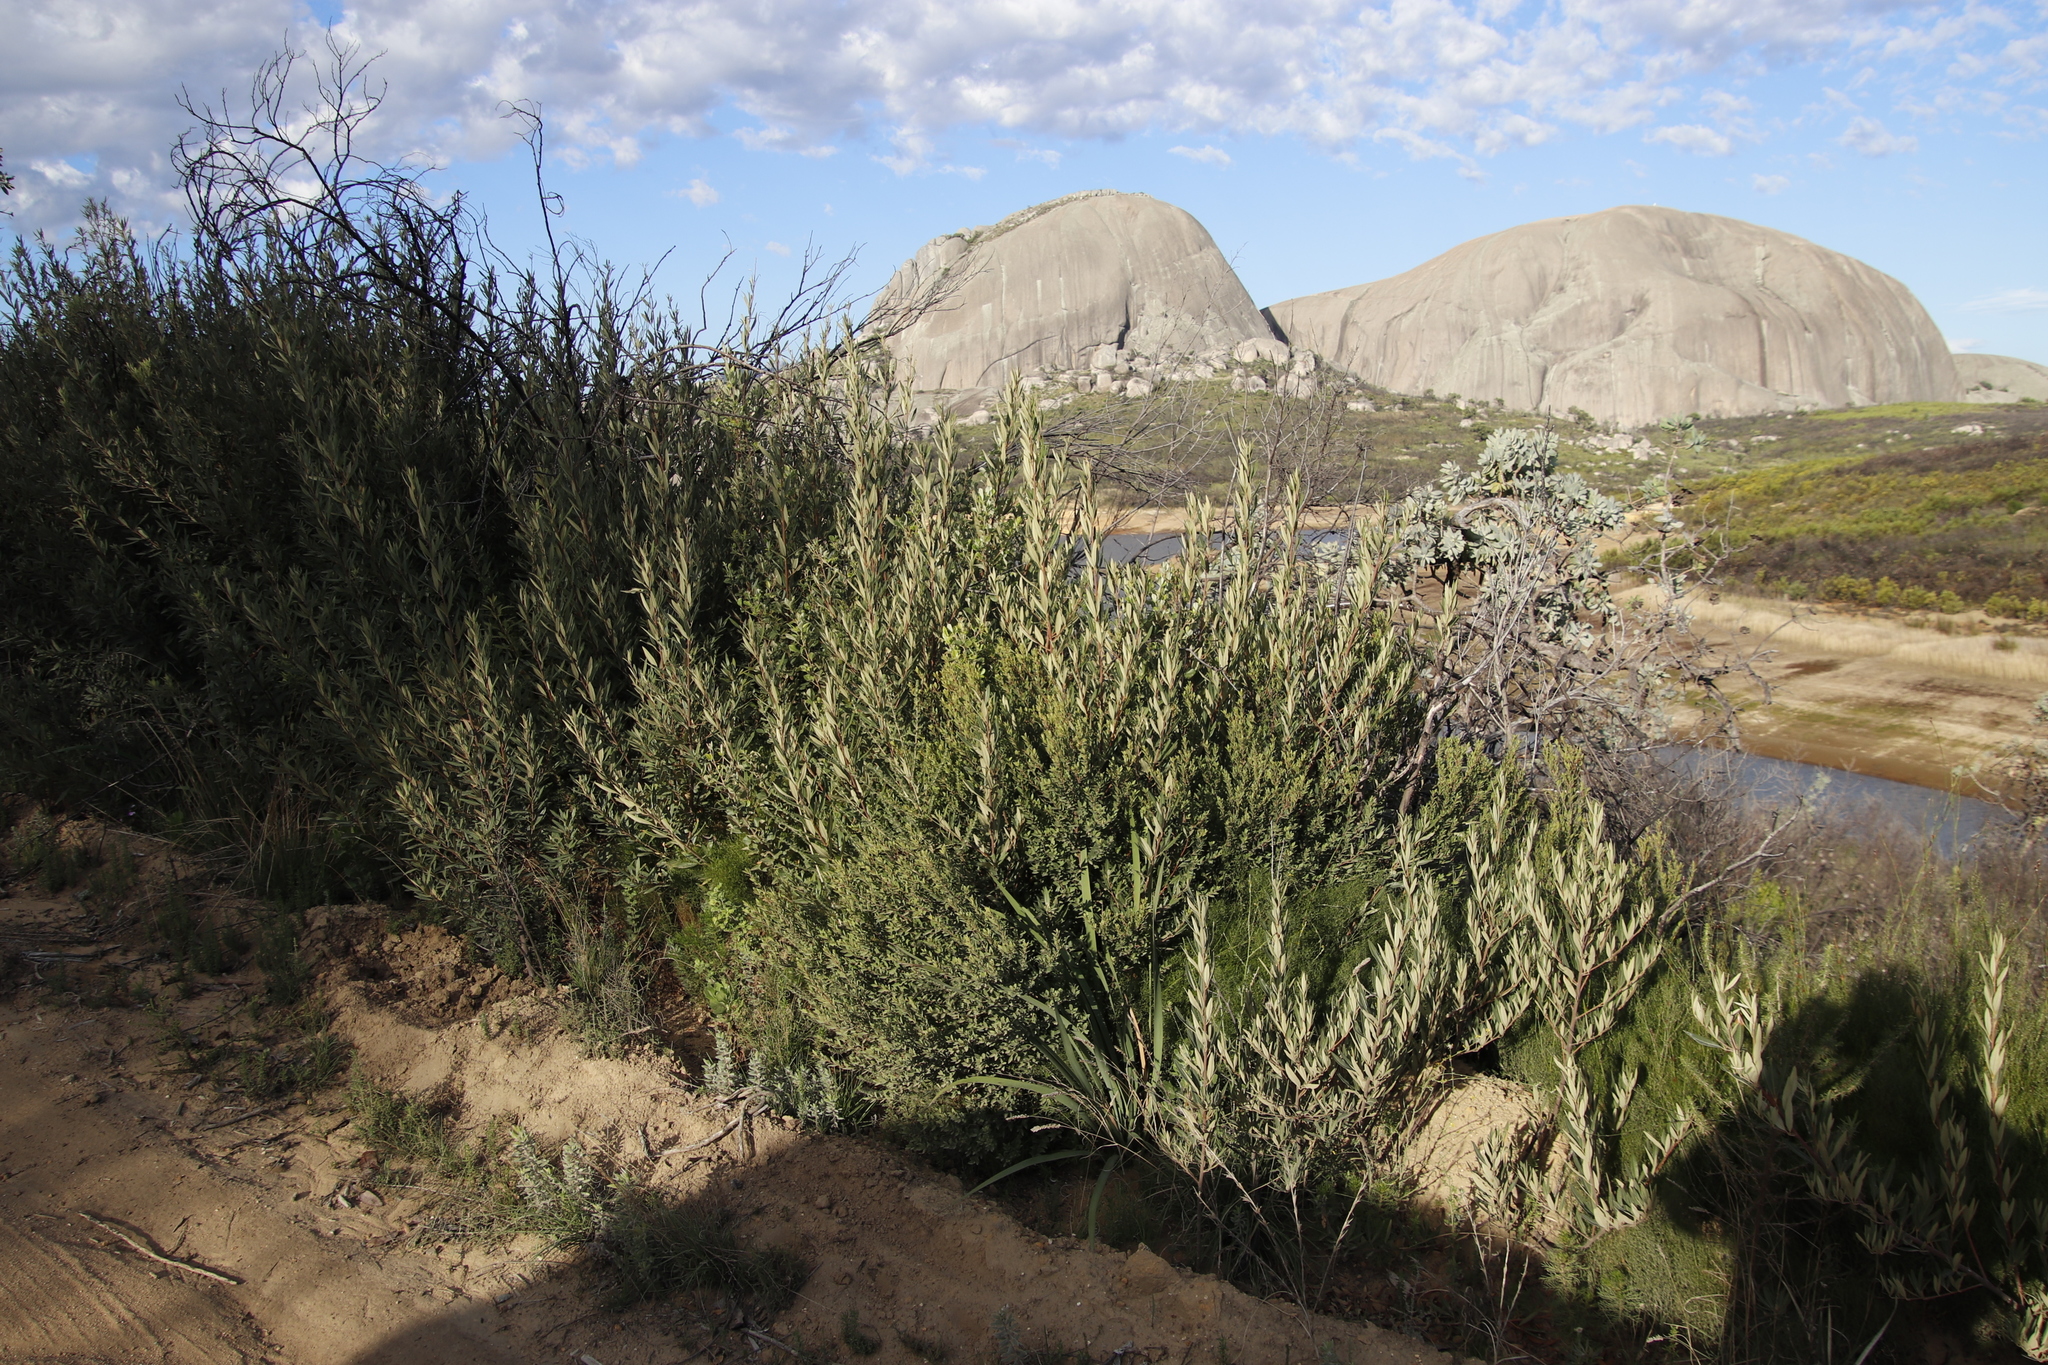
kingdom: Plantae
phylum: Tracheophyta
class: Magnoliopsida
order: Sapindales
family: Anacardiaceae
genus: Searsia
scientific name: Searsia angustifolia
